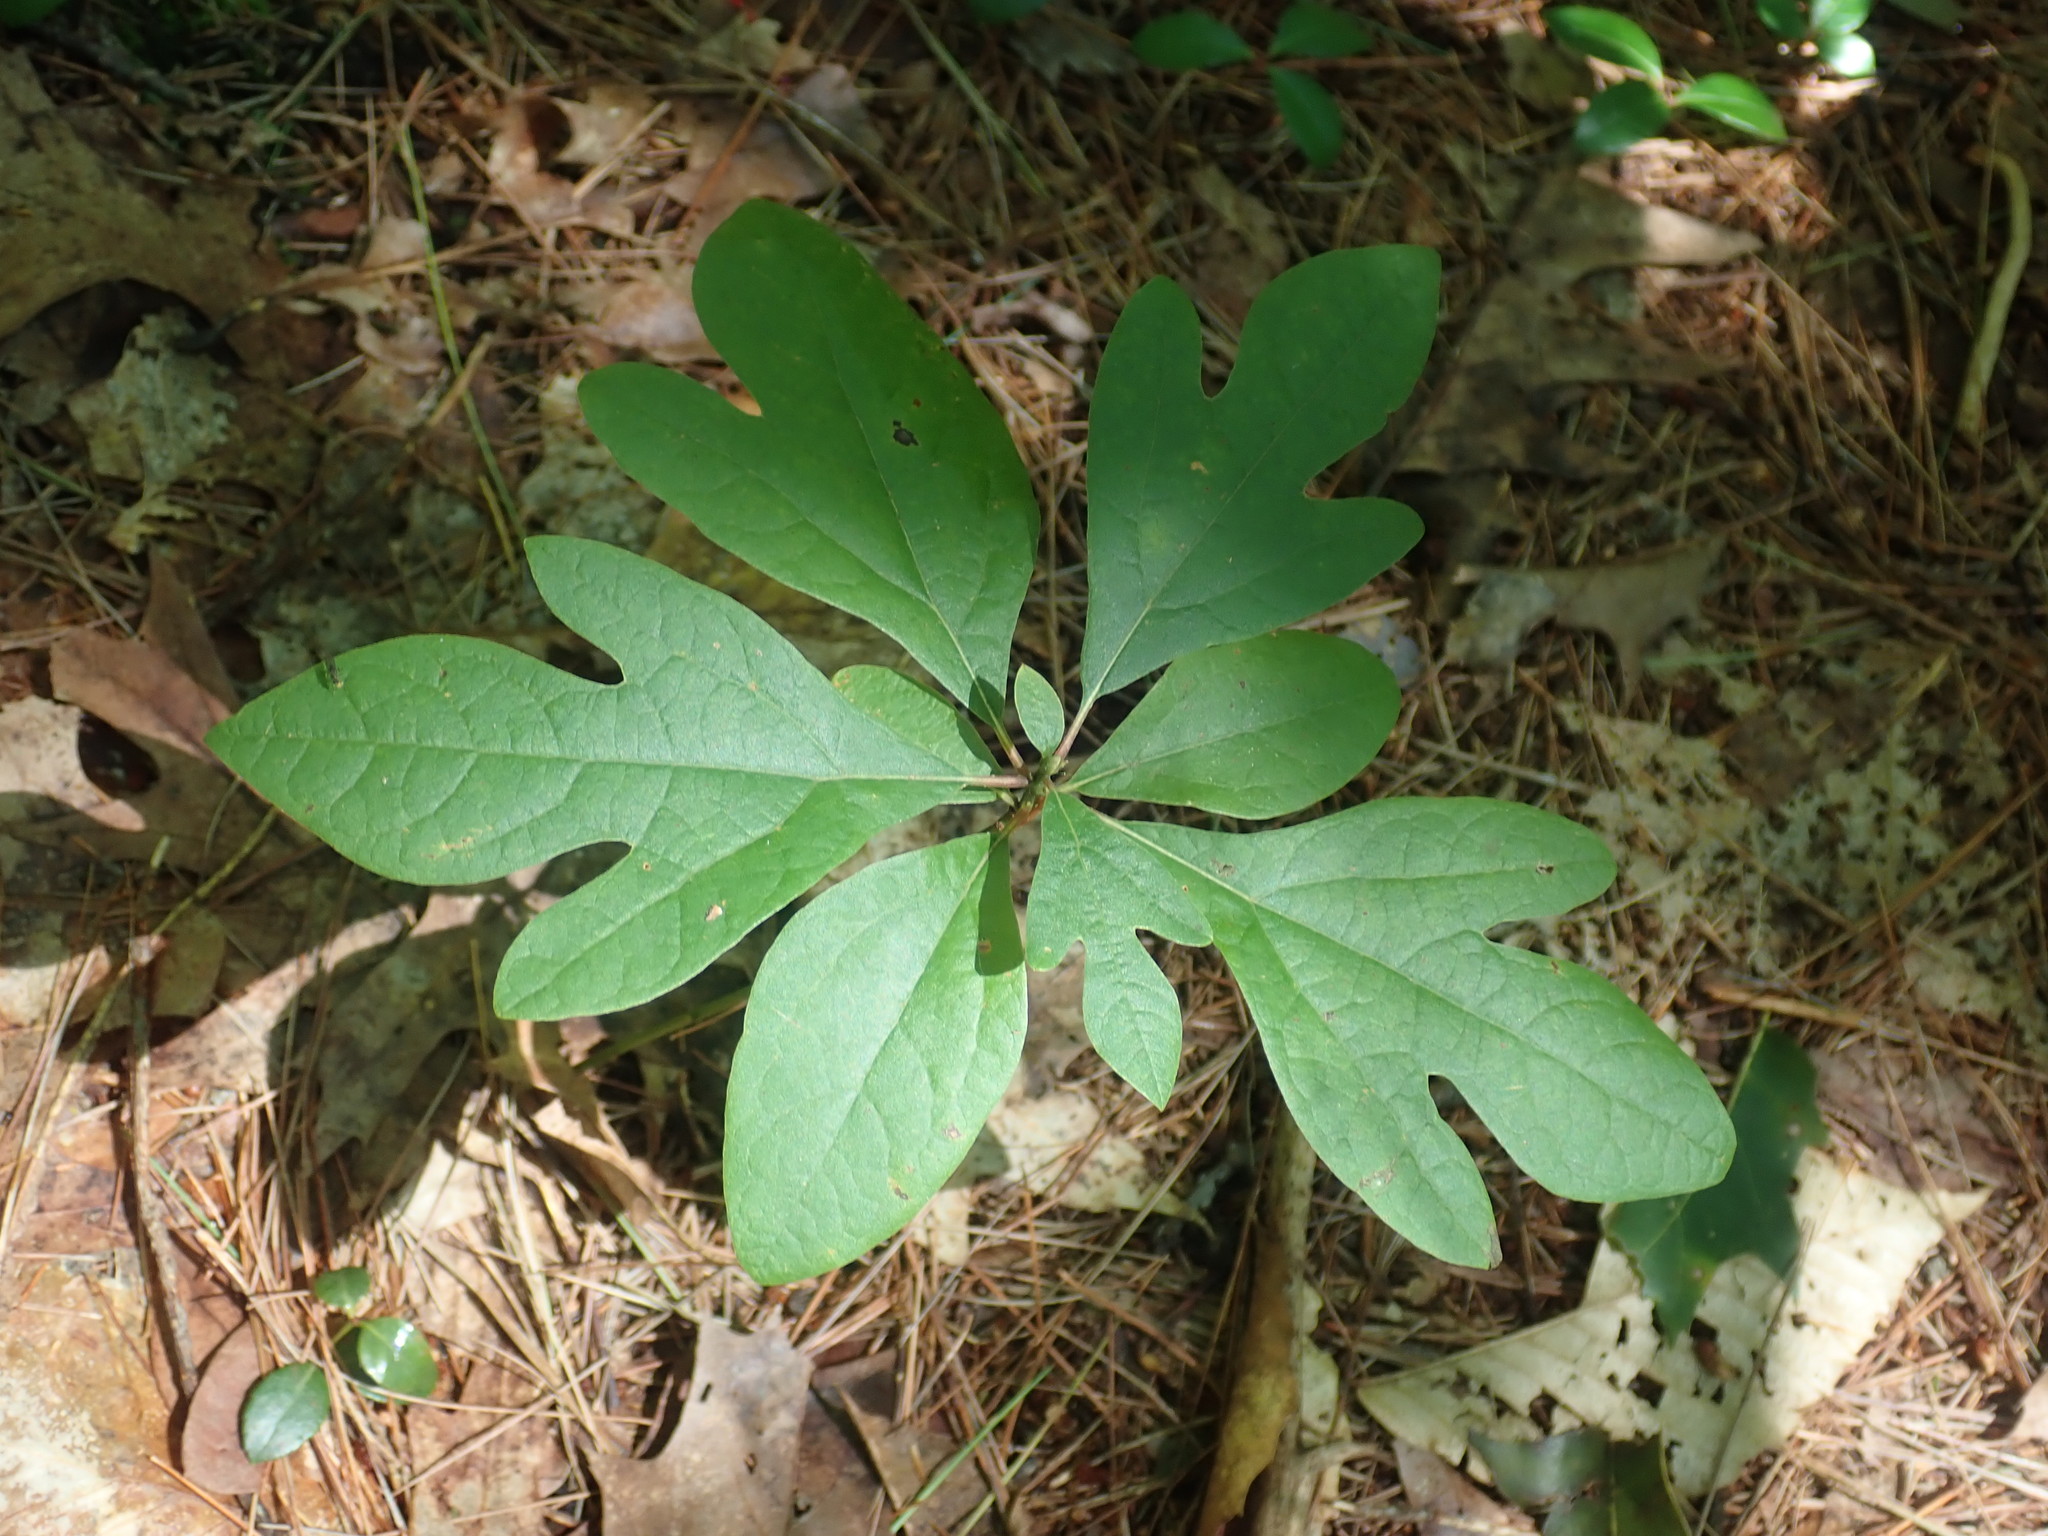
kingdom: Plantae
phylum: Tracheophyta
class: Magnoliopsida
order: Laurales
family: Lauraceae
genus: Sassafras
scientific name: Sassafras albidum
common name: Sassafras
